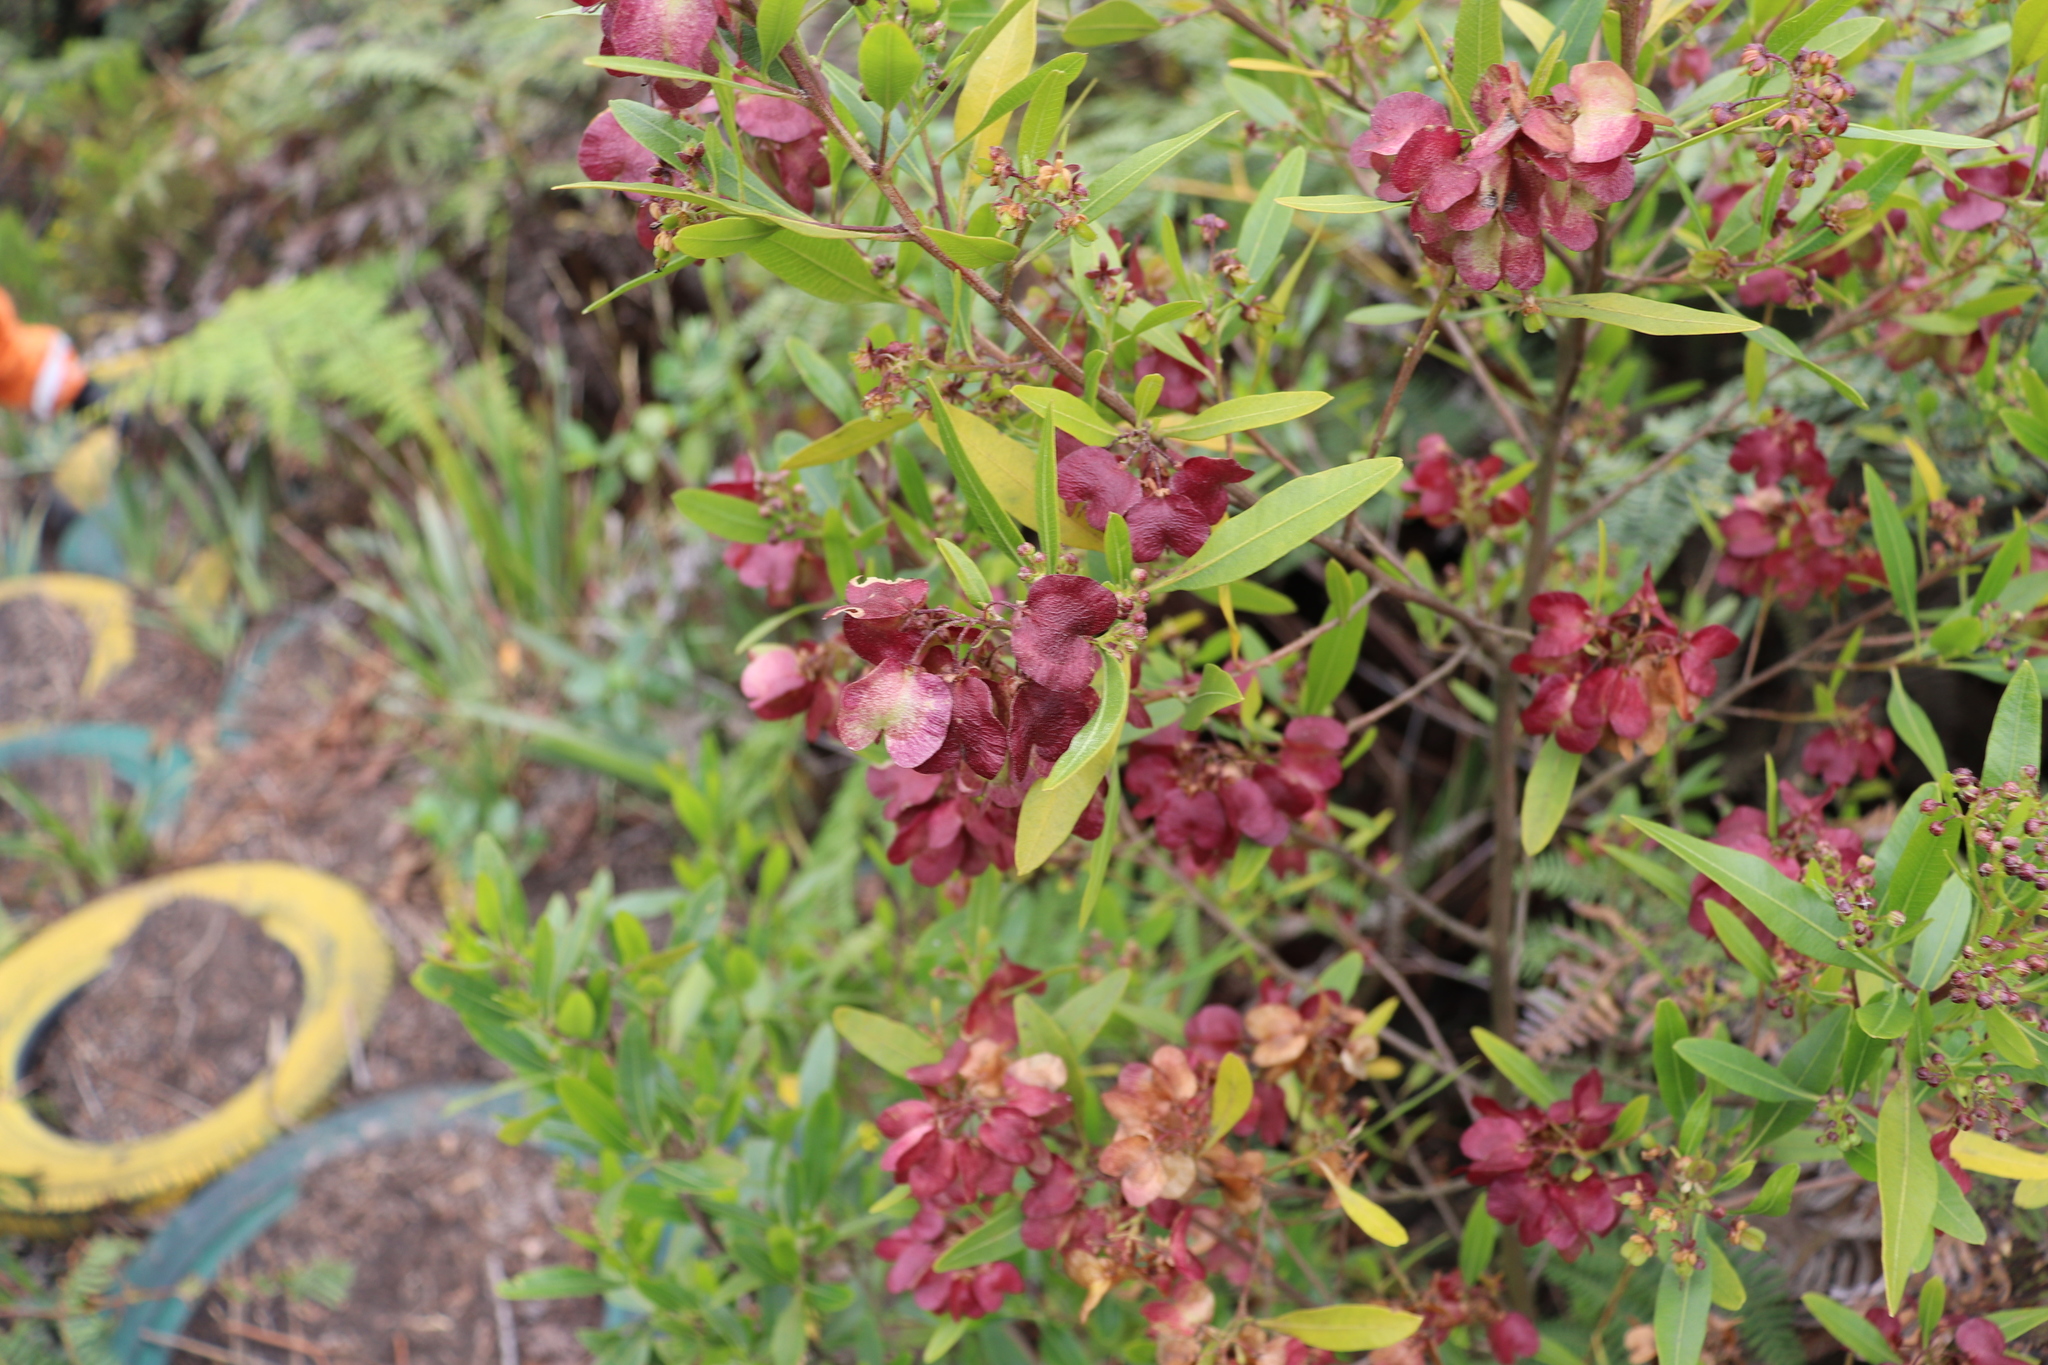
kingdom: Plantae
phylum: Tracheophyta
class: Magnoliopsida
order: Sapindales
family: Sapindaceae
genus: Dodonaea
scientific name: Dodonaea viscosa
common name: Hopbush
